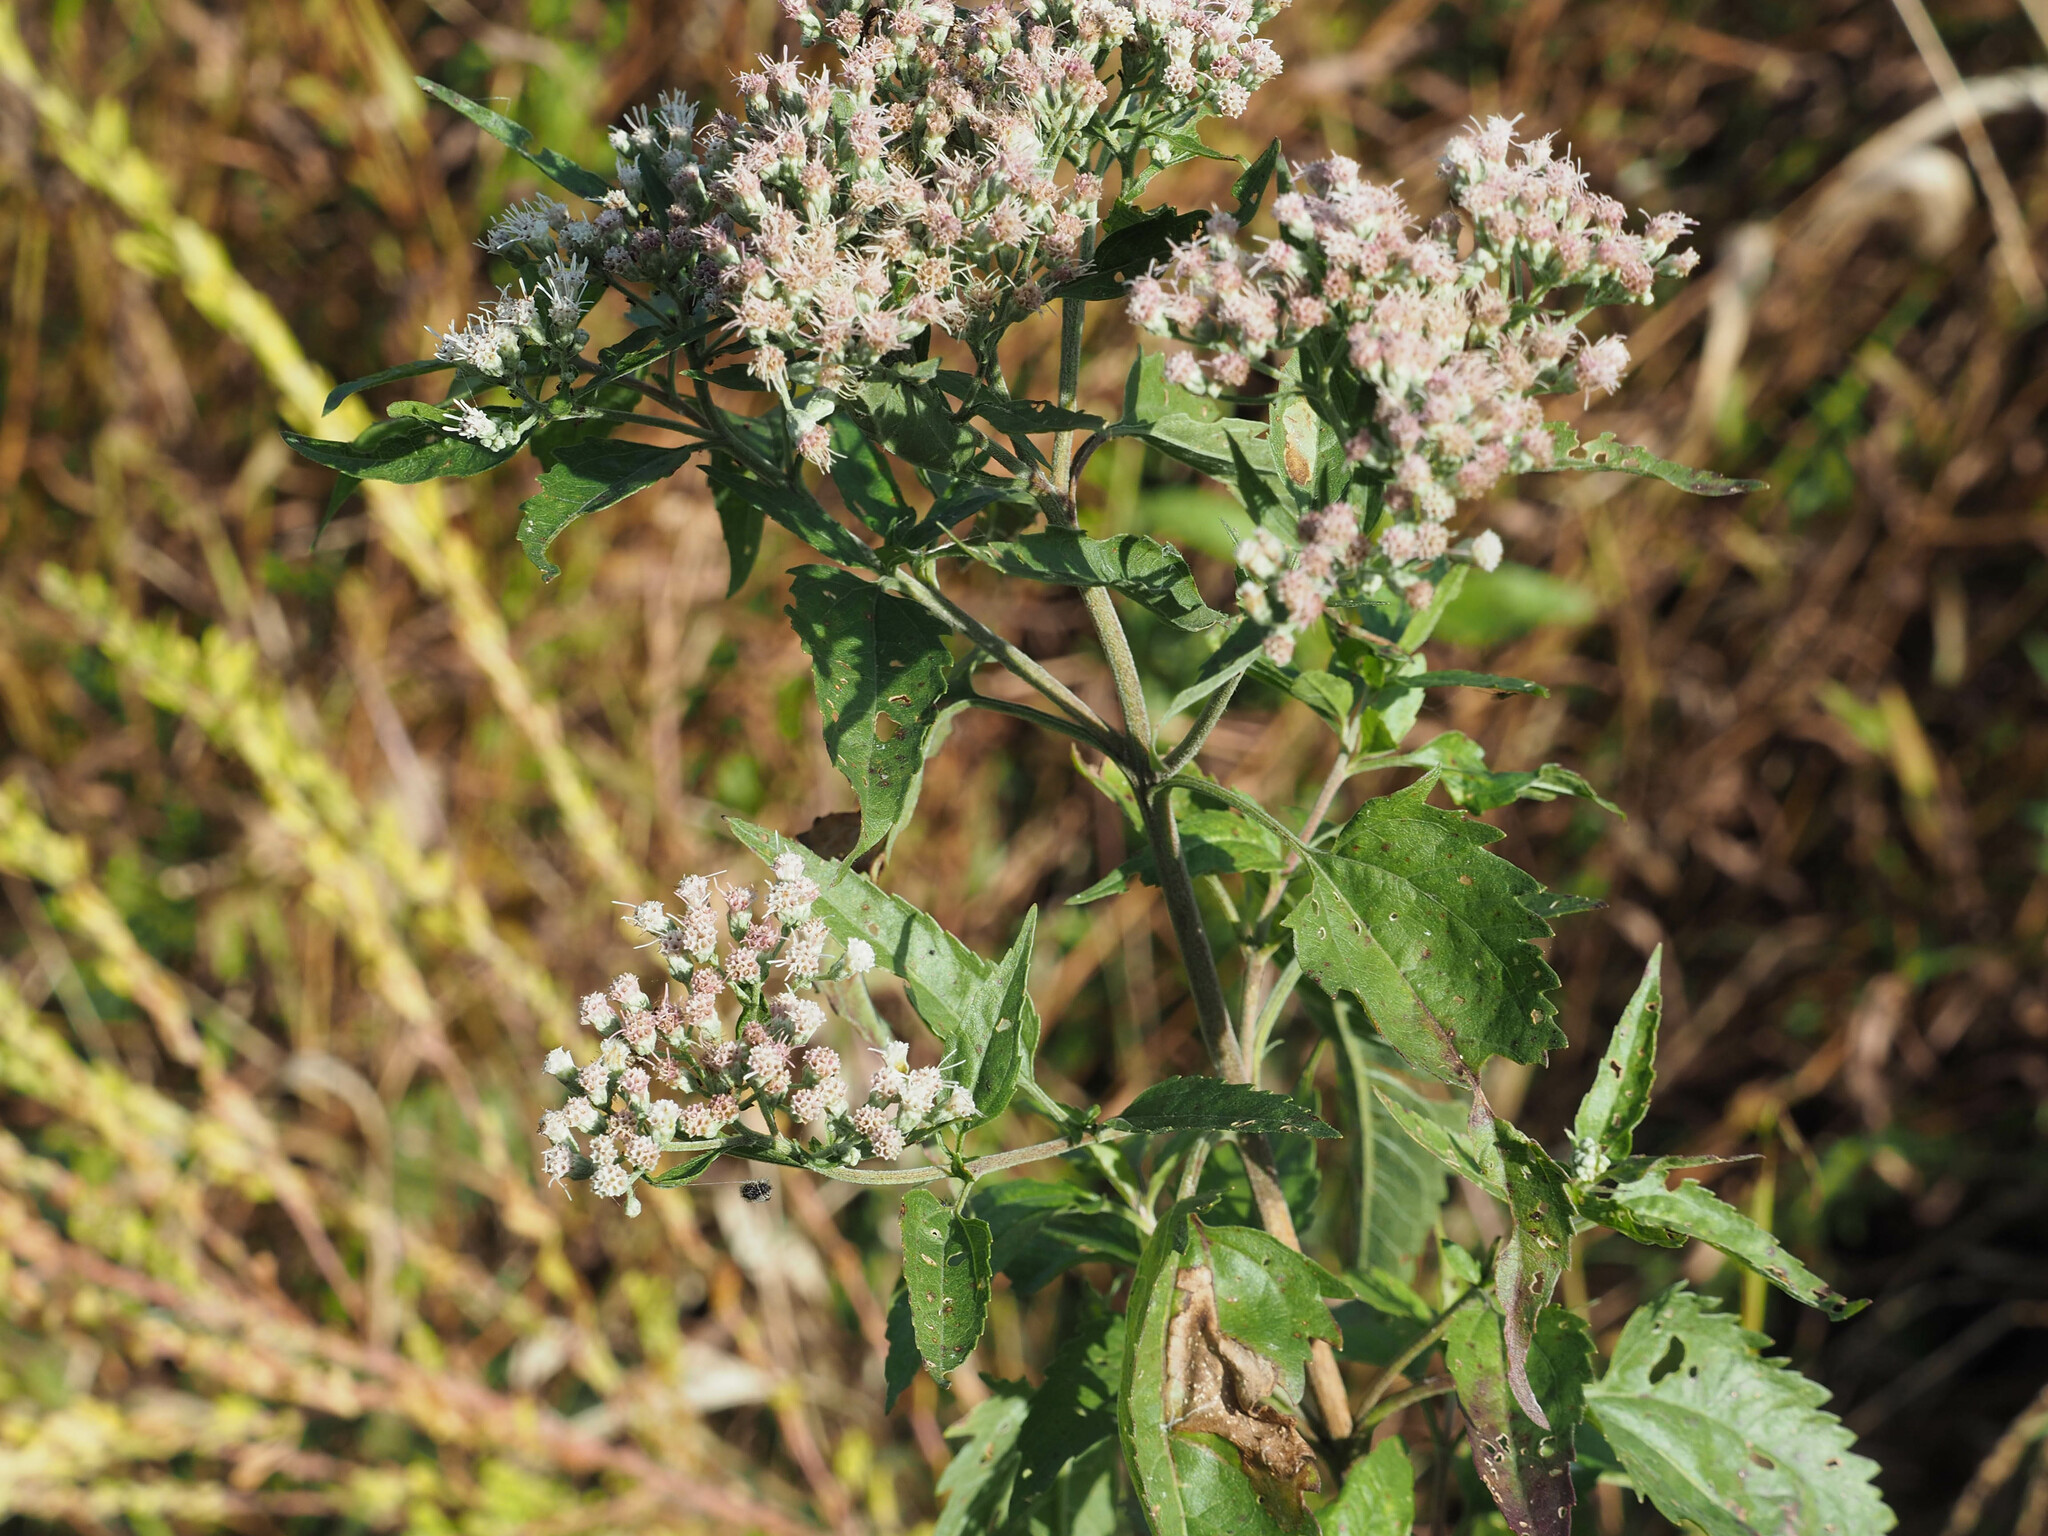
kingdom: Plantae
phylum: Tracheophyta
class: Magnoliopsida
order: Asterales
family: Asteraceae
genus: Eupatorium
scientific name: Eupatorium serotinum
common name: Late boneset
